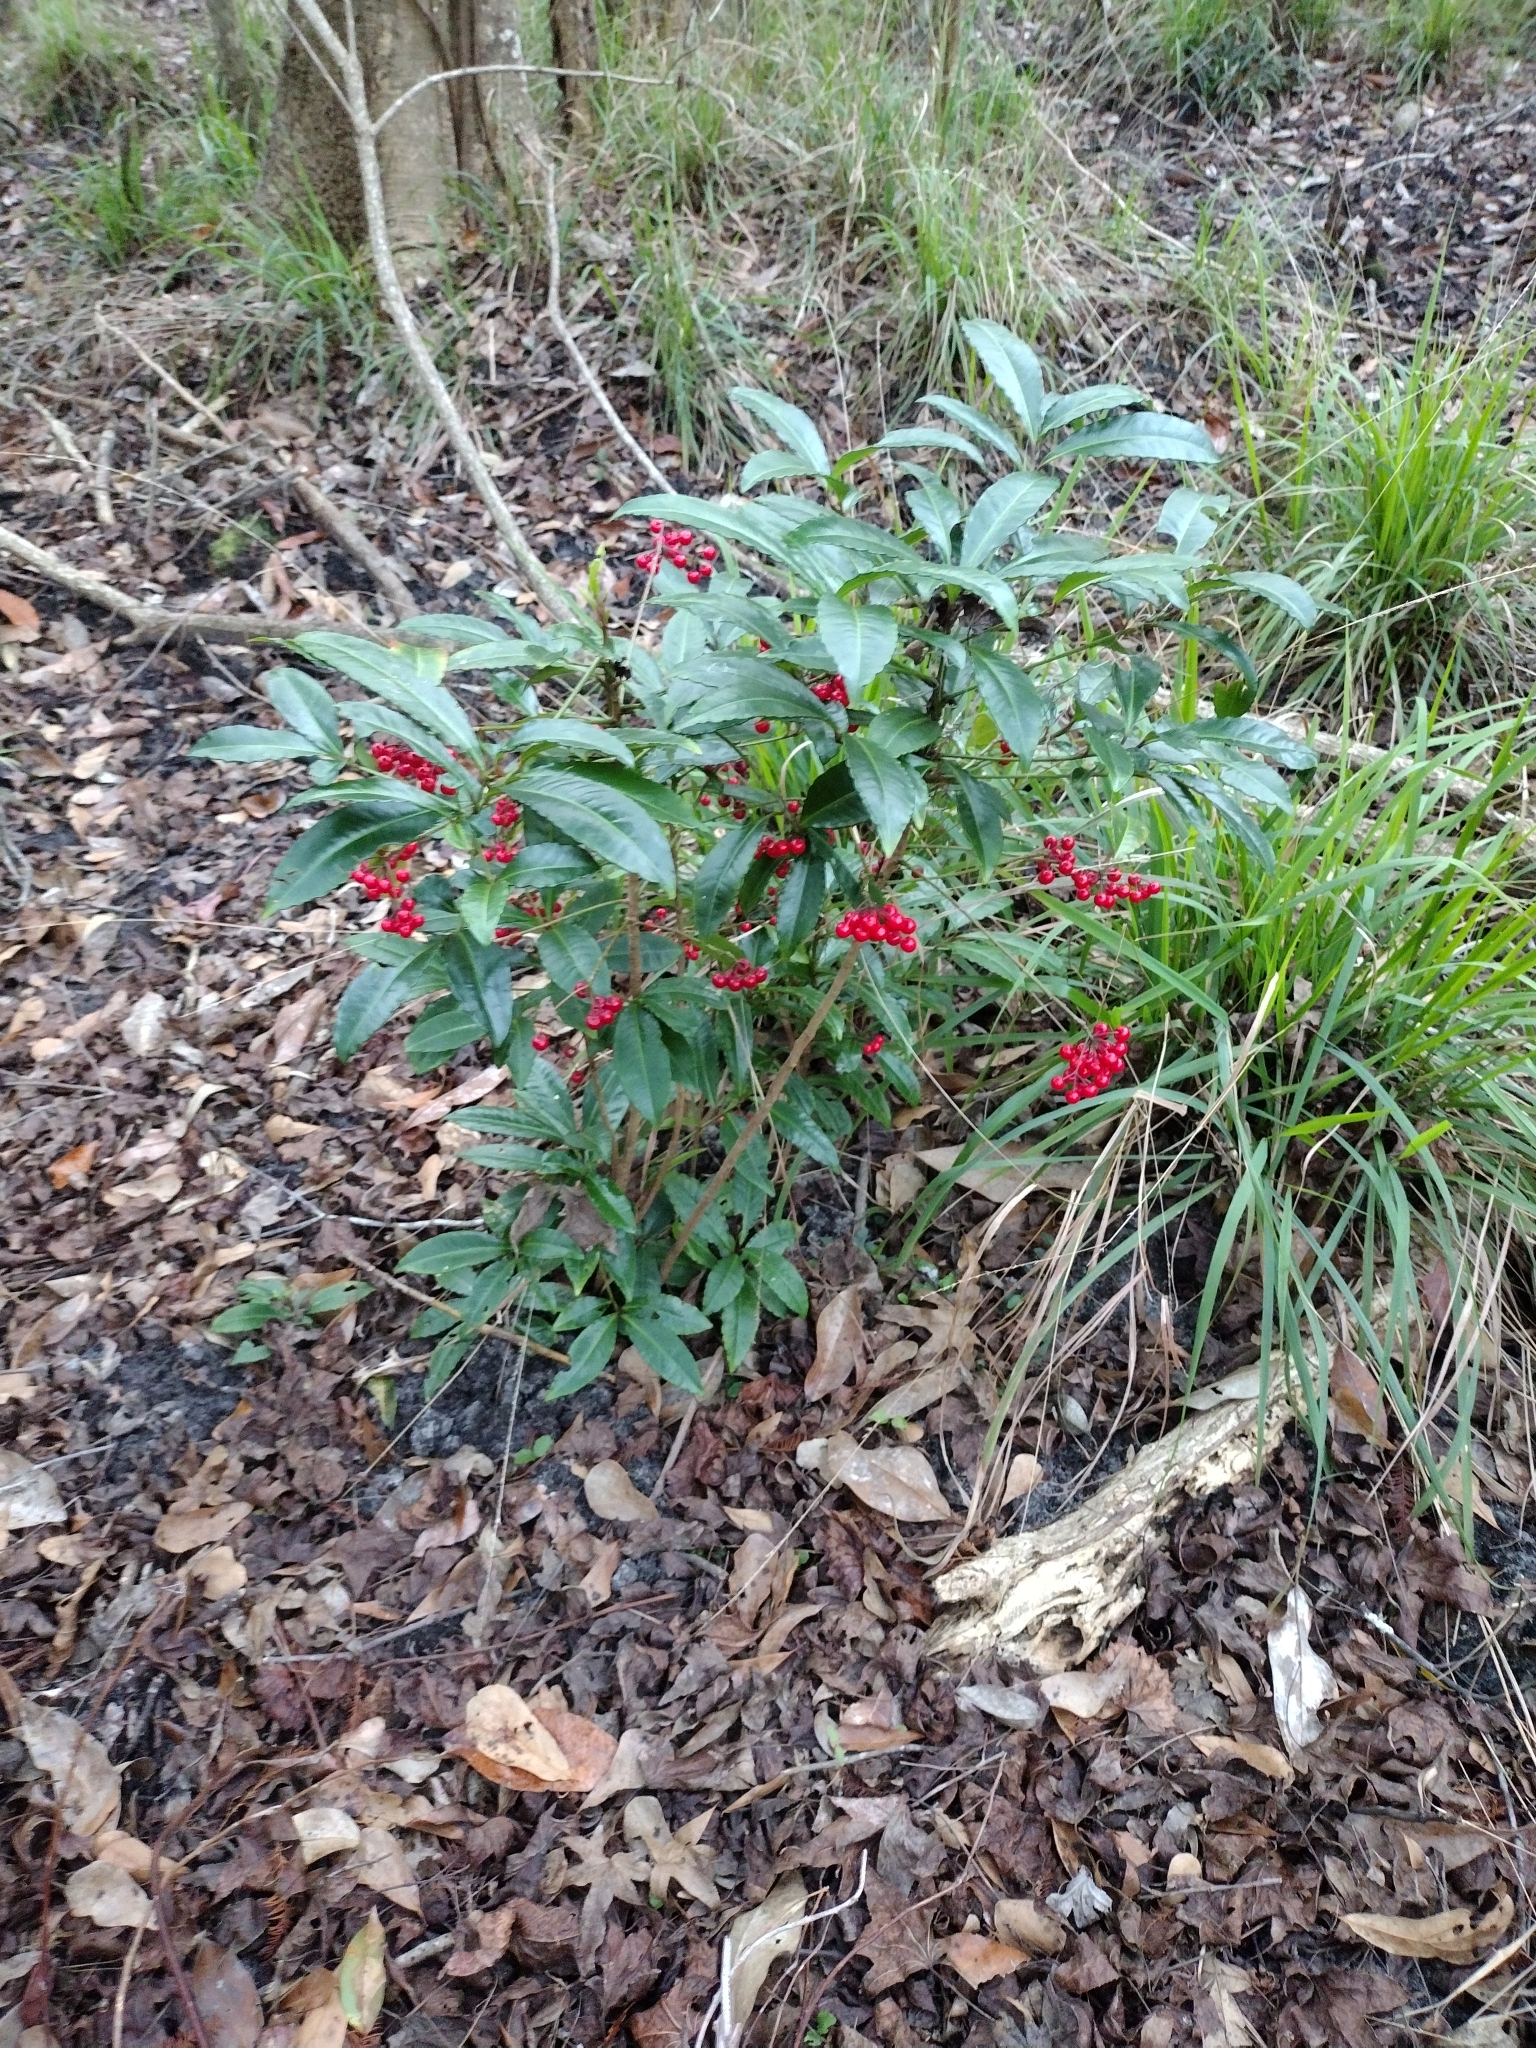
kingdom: Plantae
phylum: Tracheophyta
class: Magnoliopsida
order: Ericales
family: Primulaceae
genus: Ardisia
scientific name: Ardisia crenata
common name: Hen's eyes
